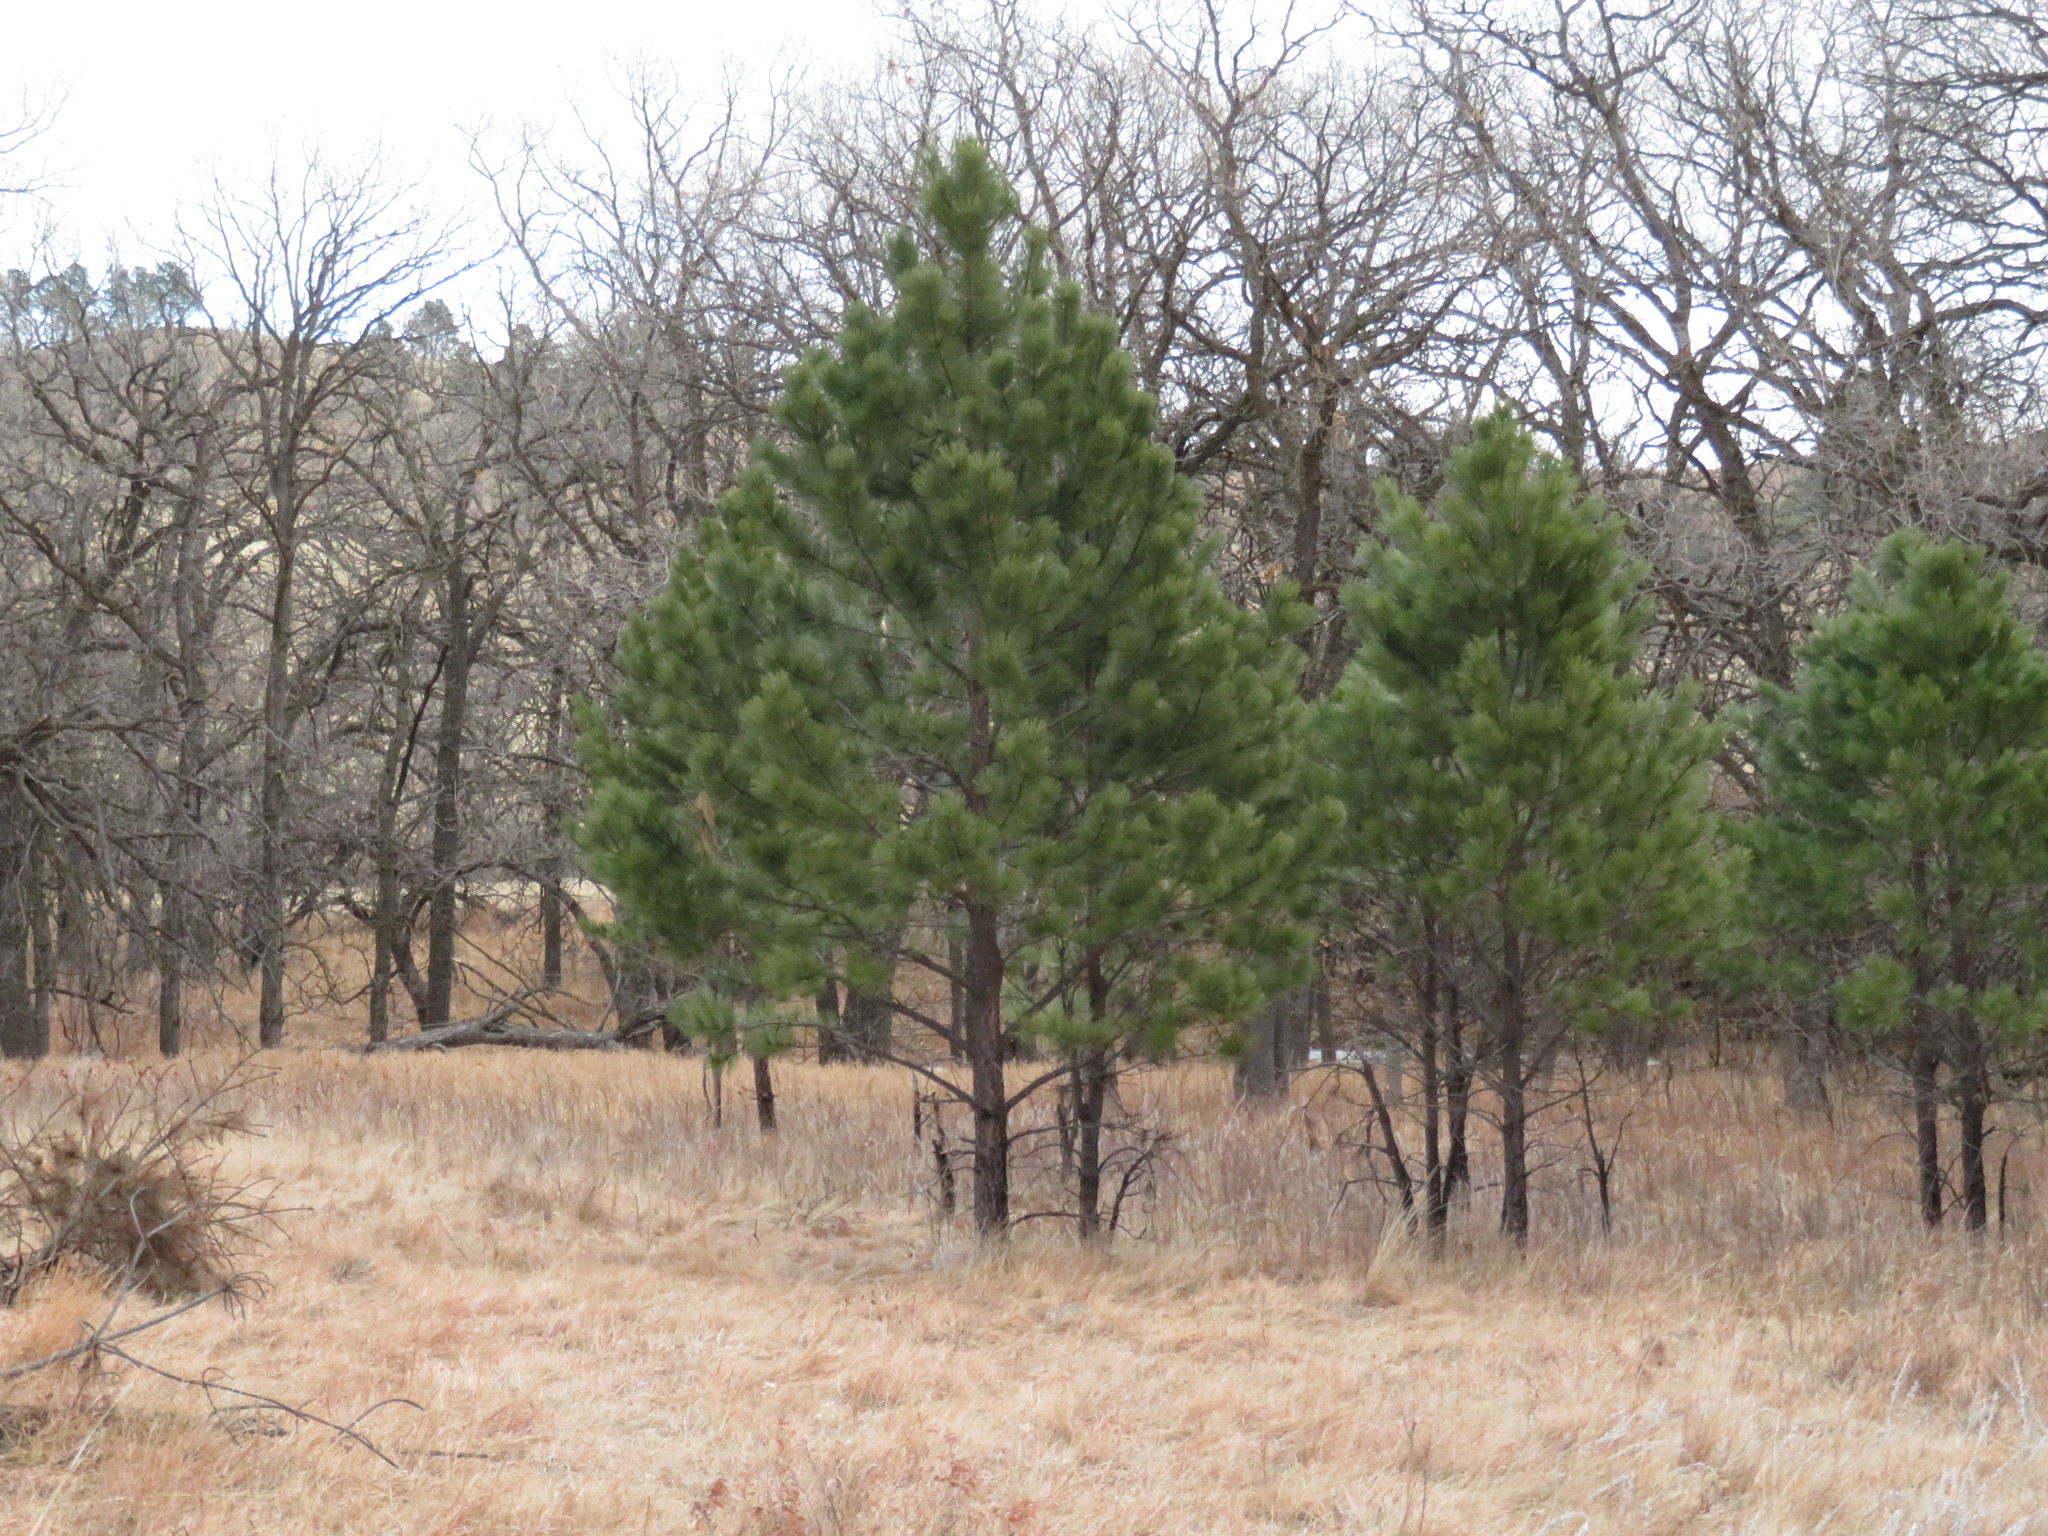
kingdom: Plantae
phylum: Tracheophyta
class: Pinopsida
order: Pinales
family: Pinaceae
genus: Pinus
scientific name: Pinus ponderosa
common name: Western yellow-pine
